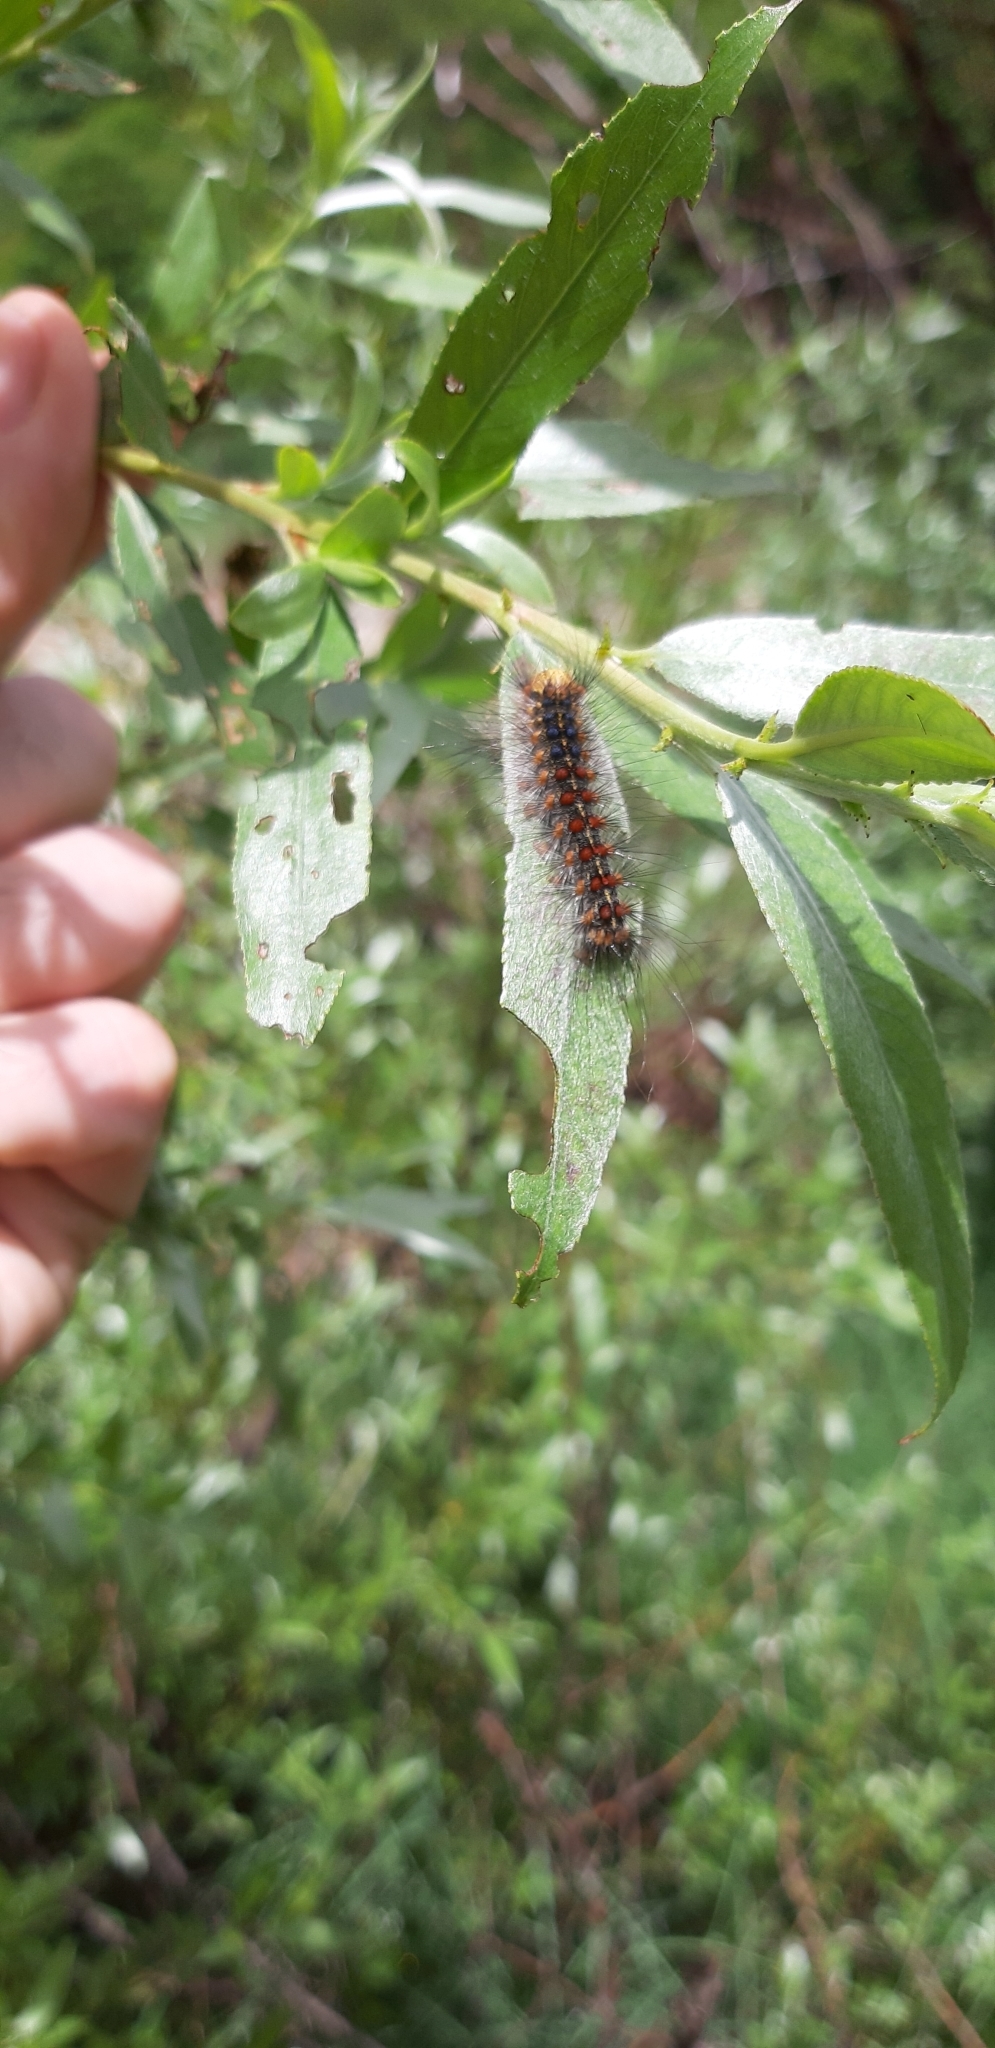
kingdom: Animalia
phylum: Arthropoda
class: Insecta
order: Lepidoptera
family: Erebidae
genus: Lymantria
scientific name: Lymantria dispar
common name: Gypsy moth
